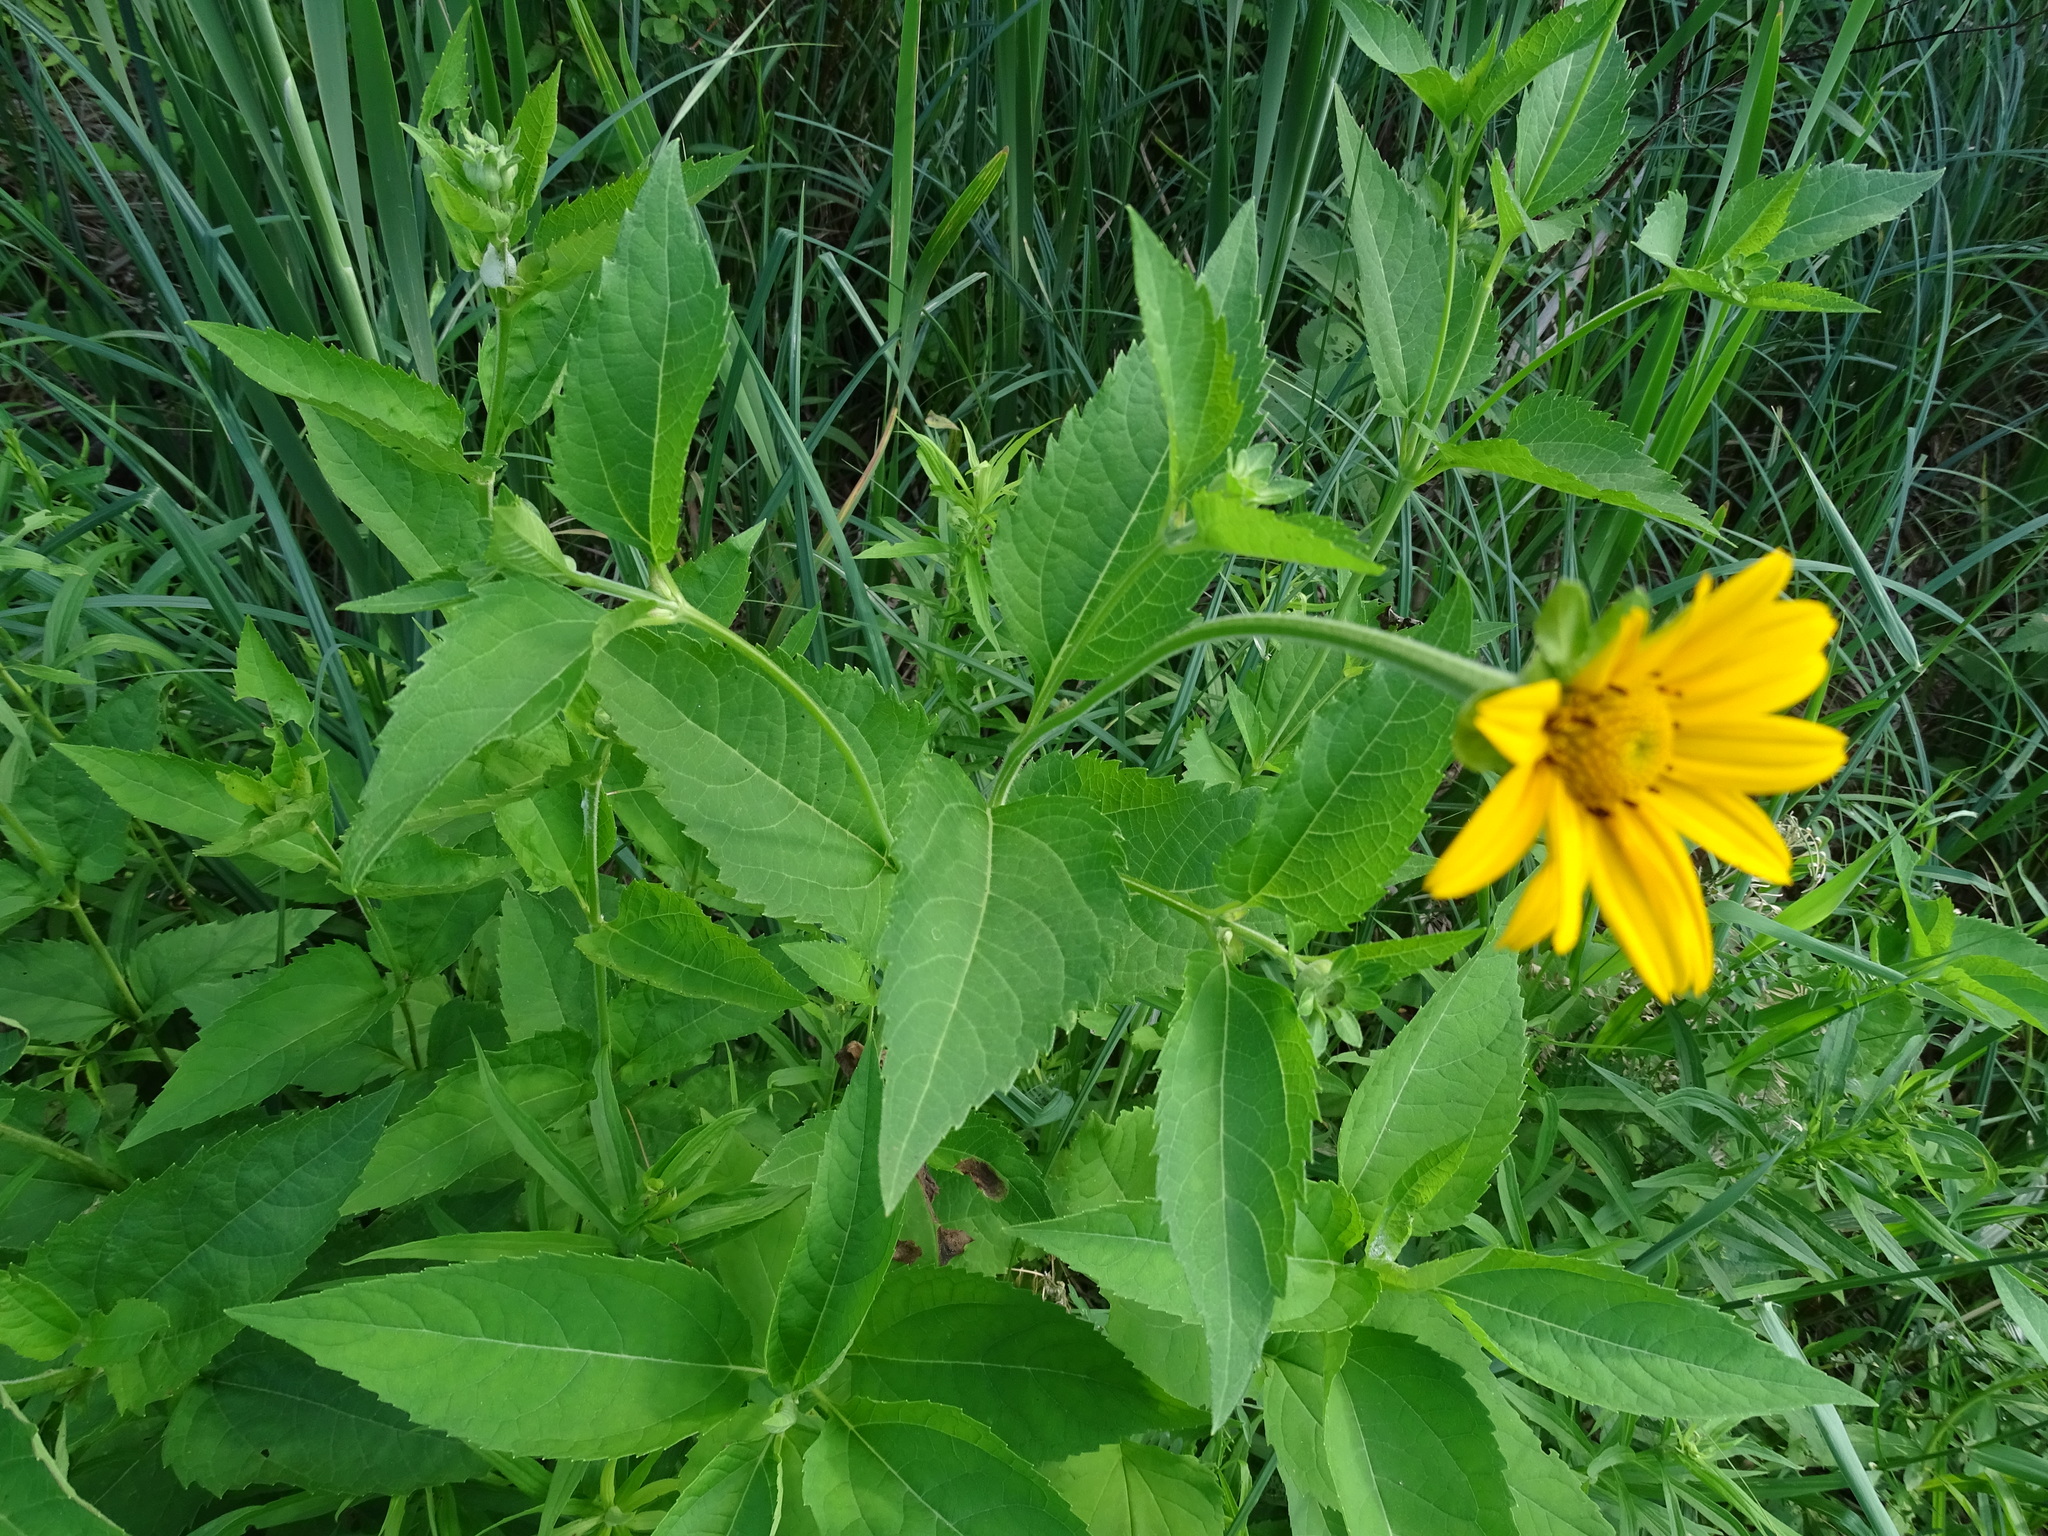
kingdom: Plantae
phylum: Tracheophyta
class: Magnoliopsida
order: Asterales
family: Asteraceae
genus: Heliopsis
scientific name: Heliopsis helianthoides
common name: False sunflower
